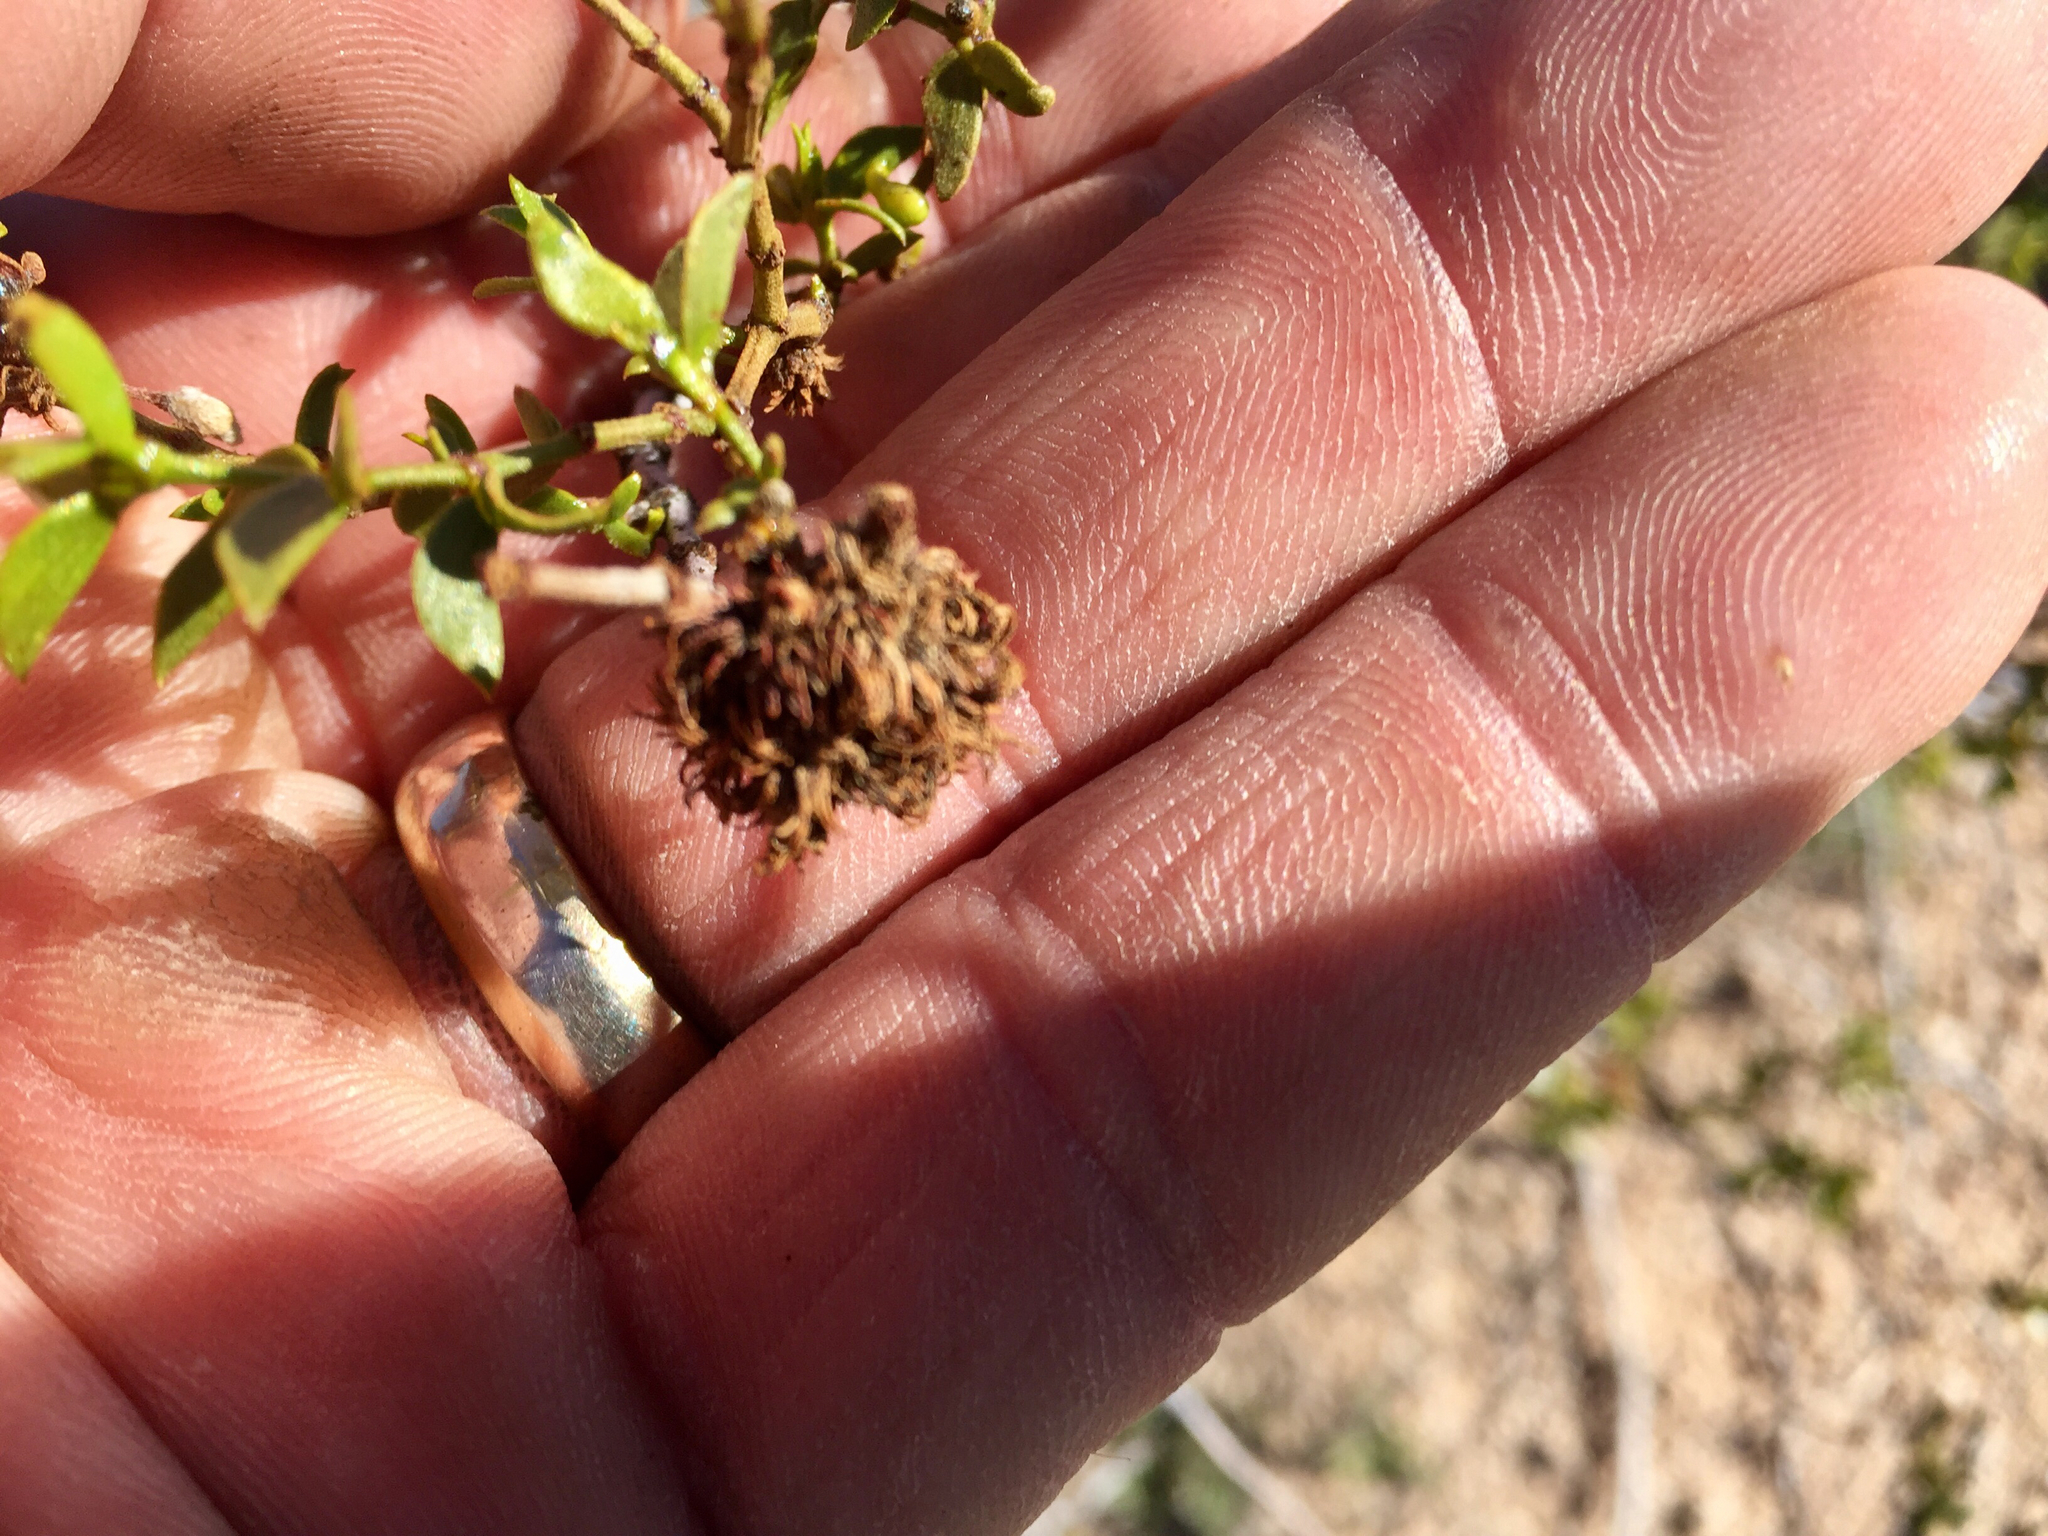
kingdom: Animalia
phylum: Arthropoda
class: Insecta
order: Diptera
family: Cecidomyiidae
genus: Asphondylia
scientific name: Asphondylia auripila
